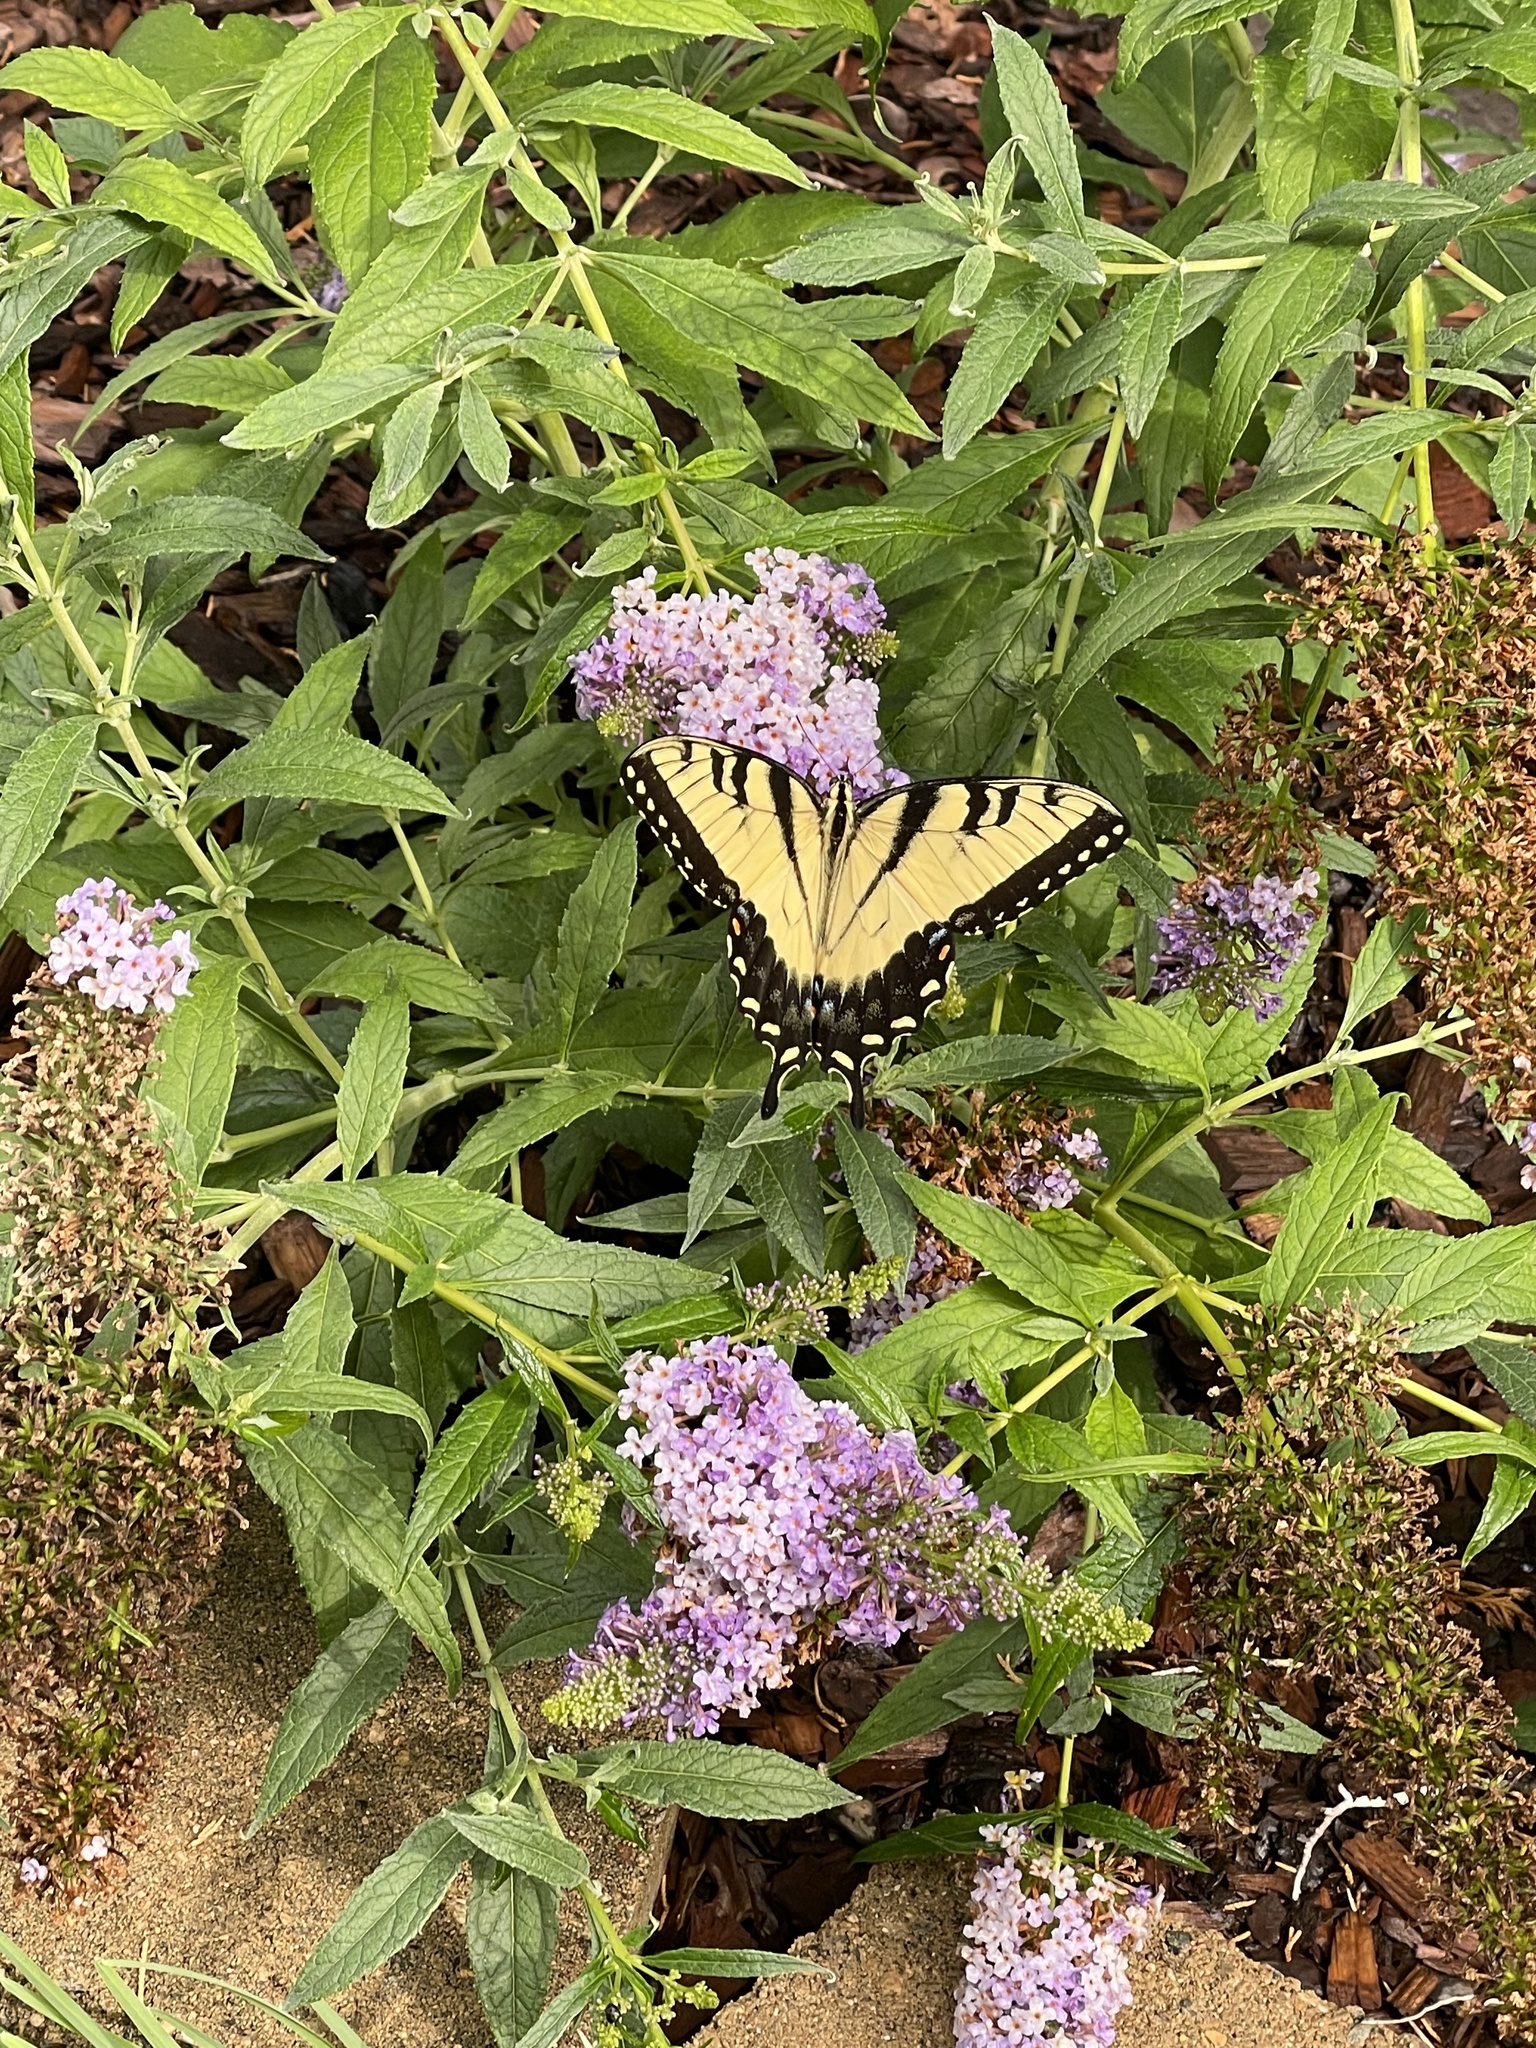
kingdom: Animalia
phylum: Arthropoda
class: Insecta
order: Lepidoptera
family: Papilionidae
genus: Papilio
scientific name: Papilio glaucus
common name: Tiger swallowtail
